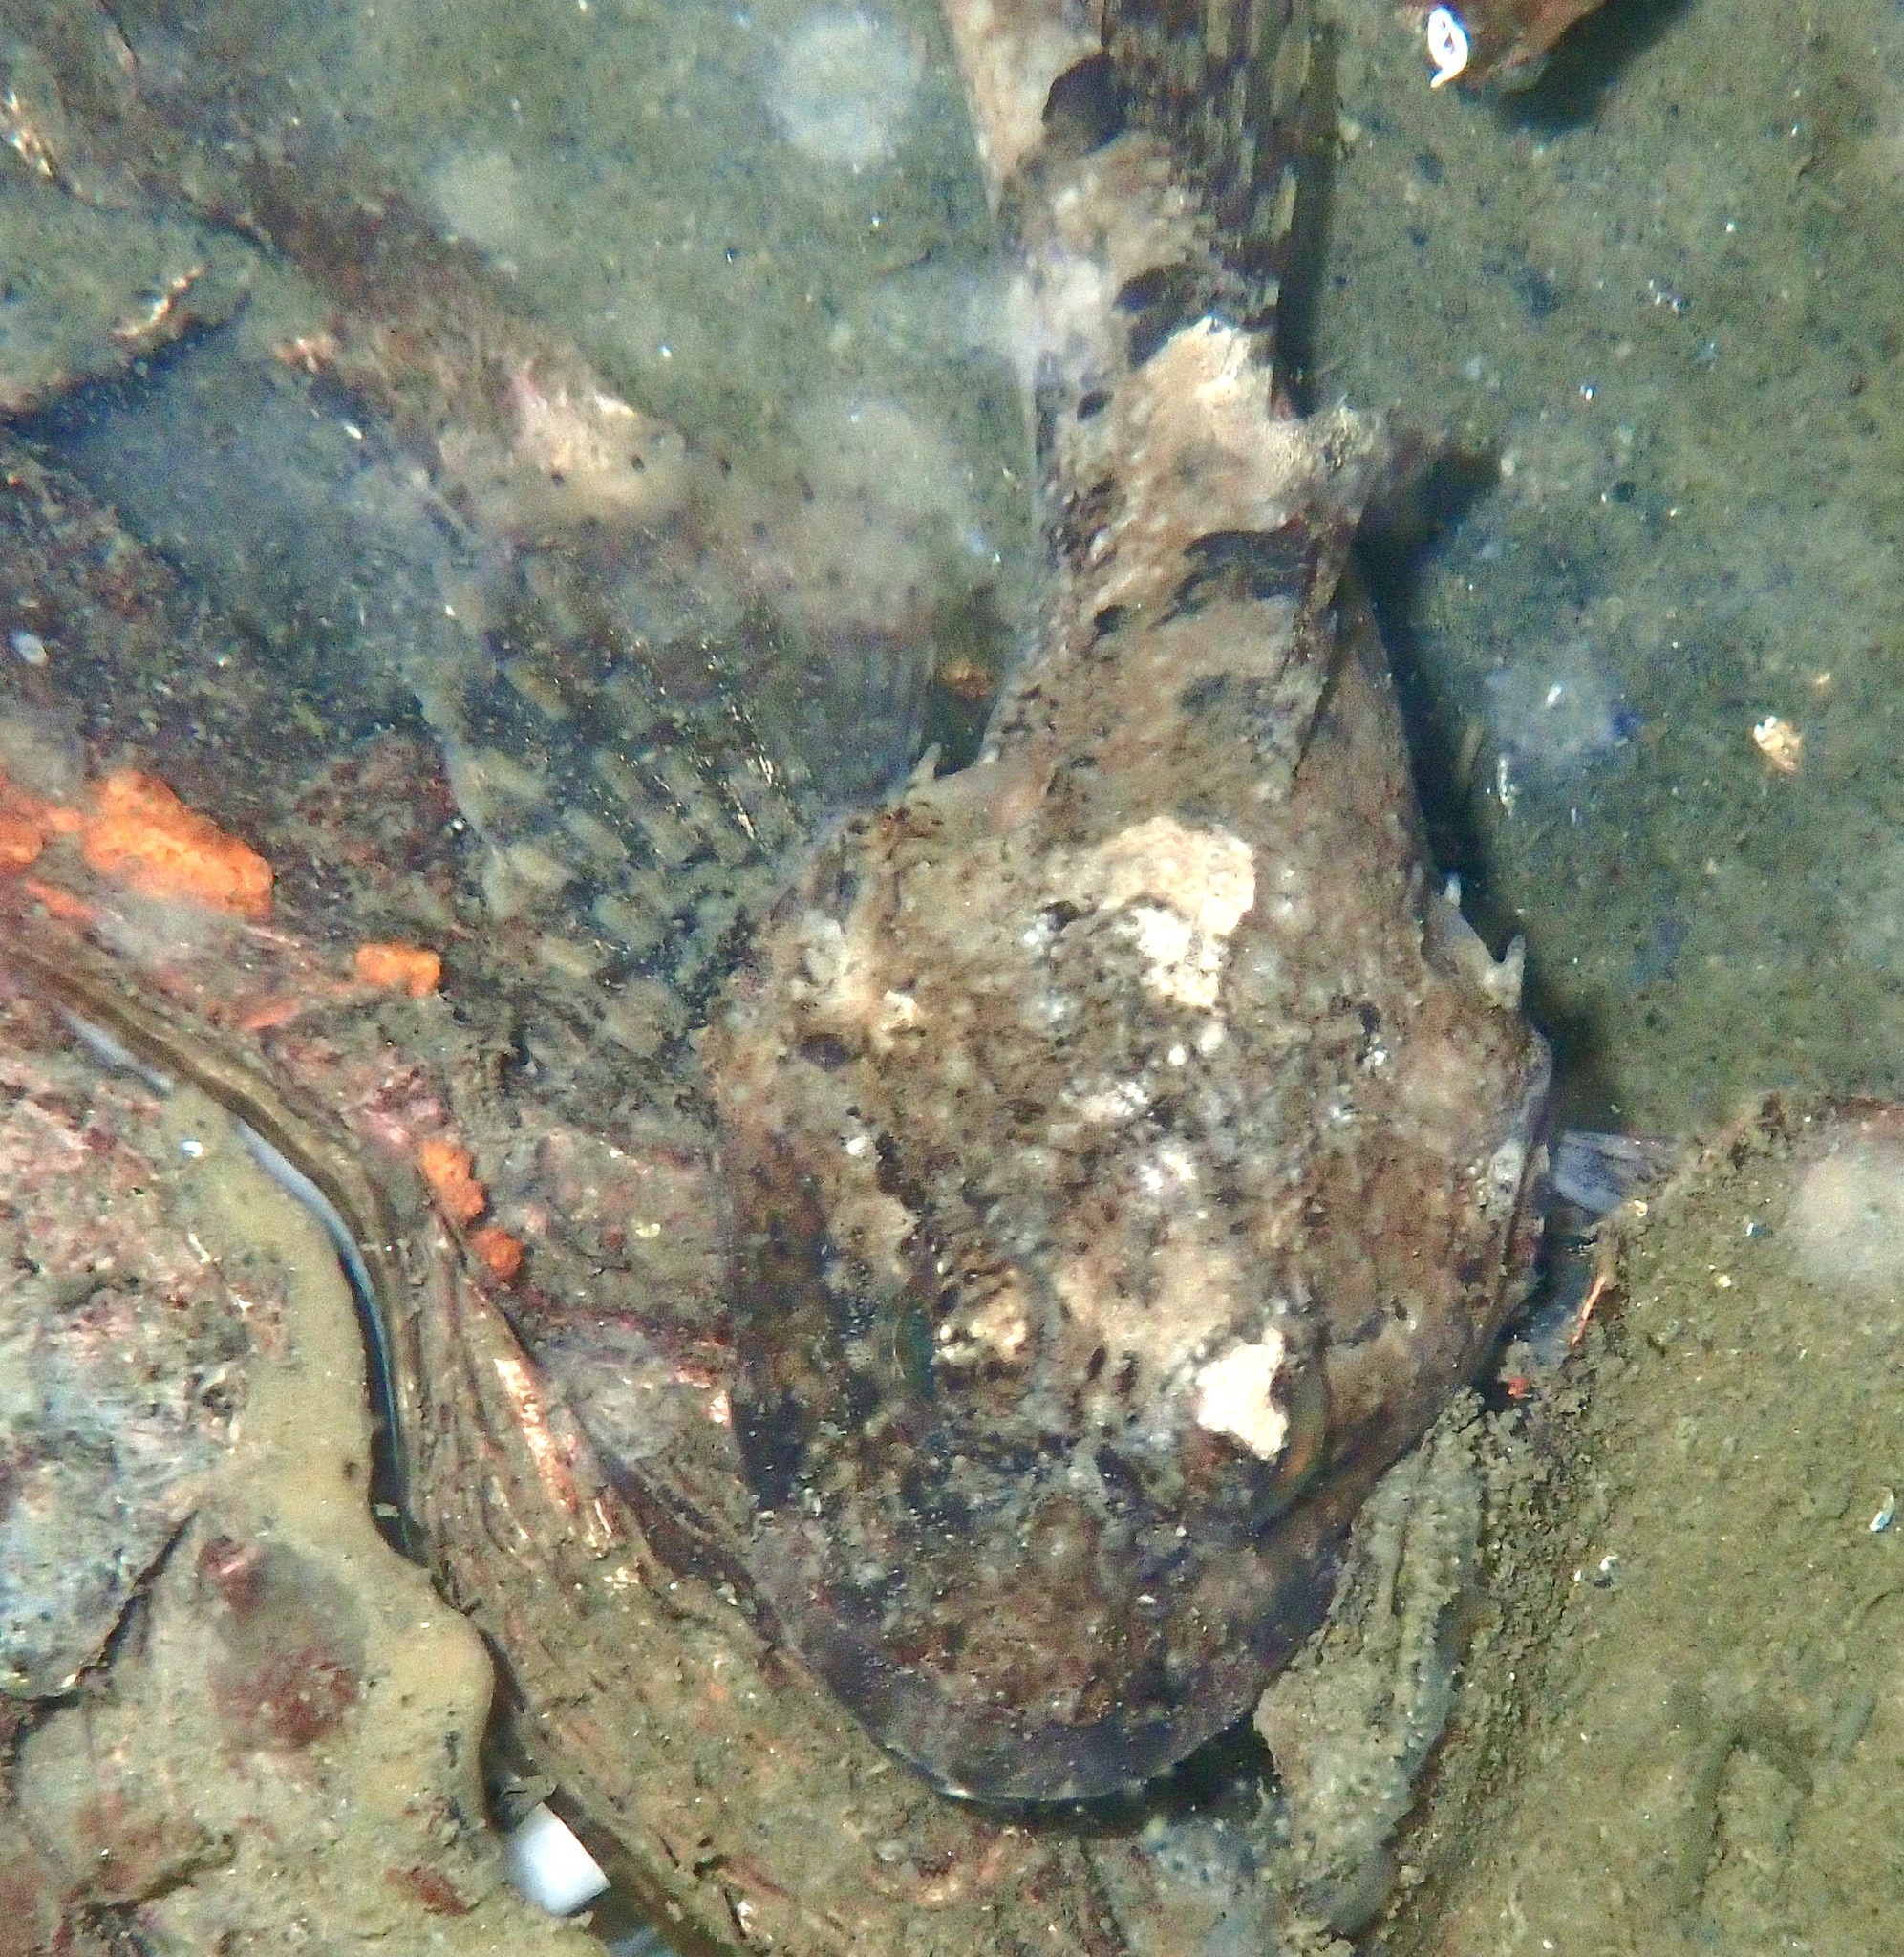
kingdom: Animalia
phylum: Chordata
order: Scorpaeniformes
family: Cottidae
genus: Myoxocephalus
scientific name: Myoxocephalus scorpius
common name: Shorthorn sculpin
